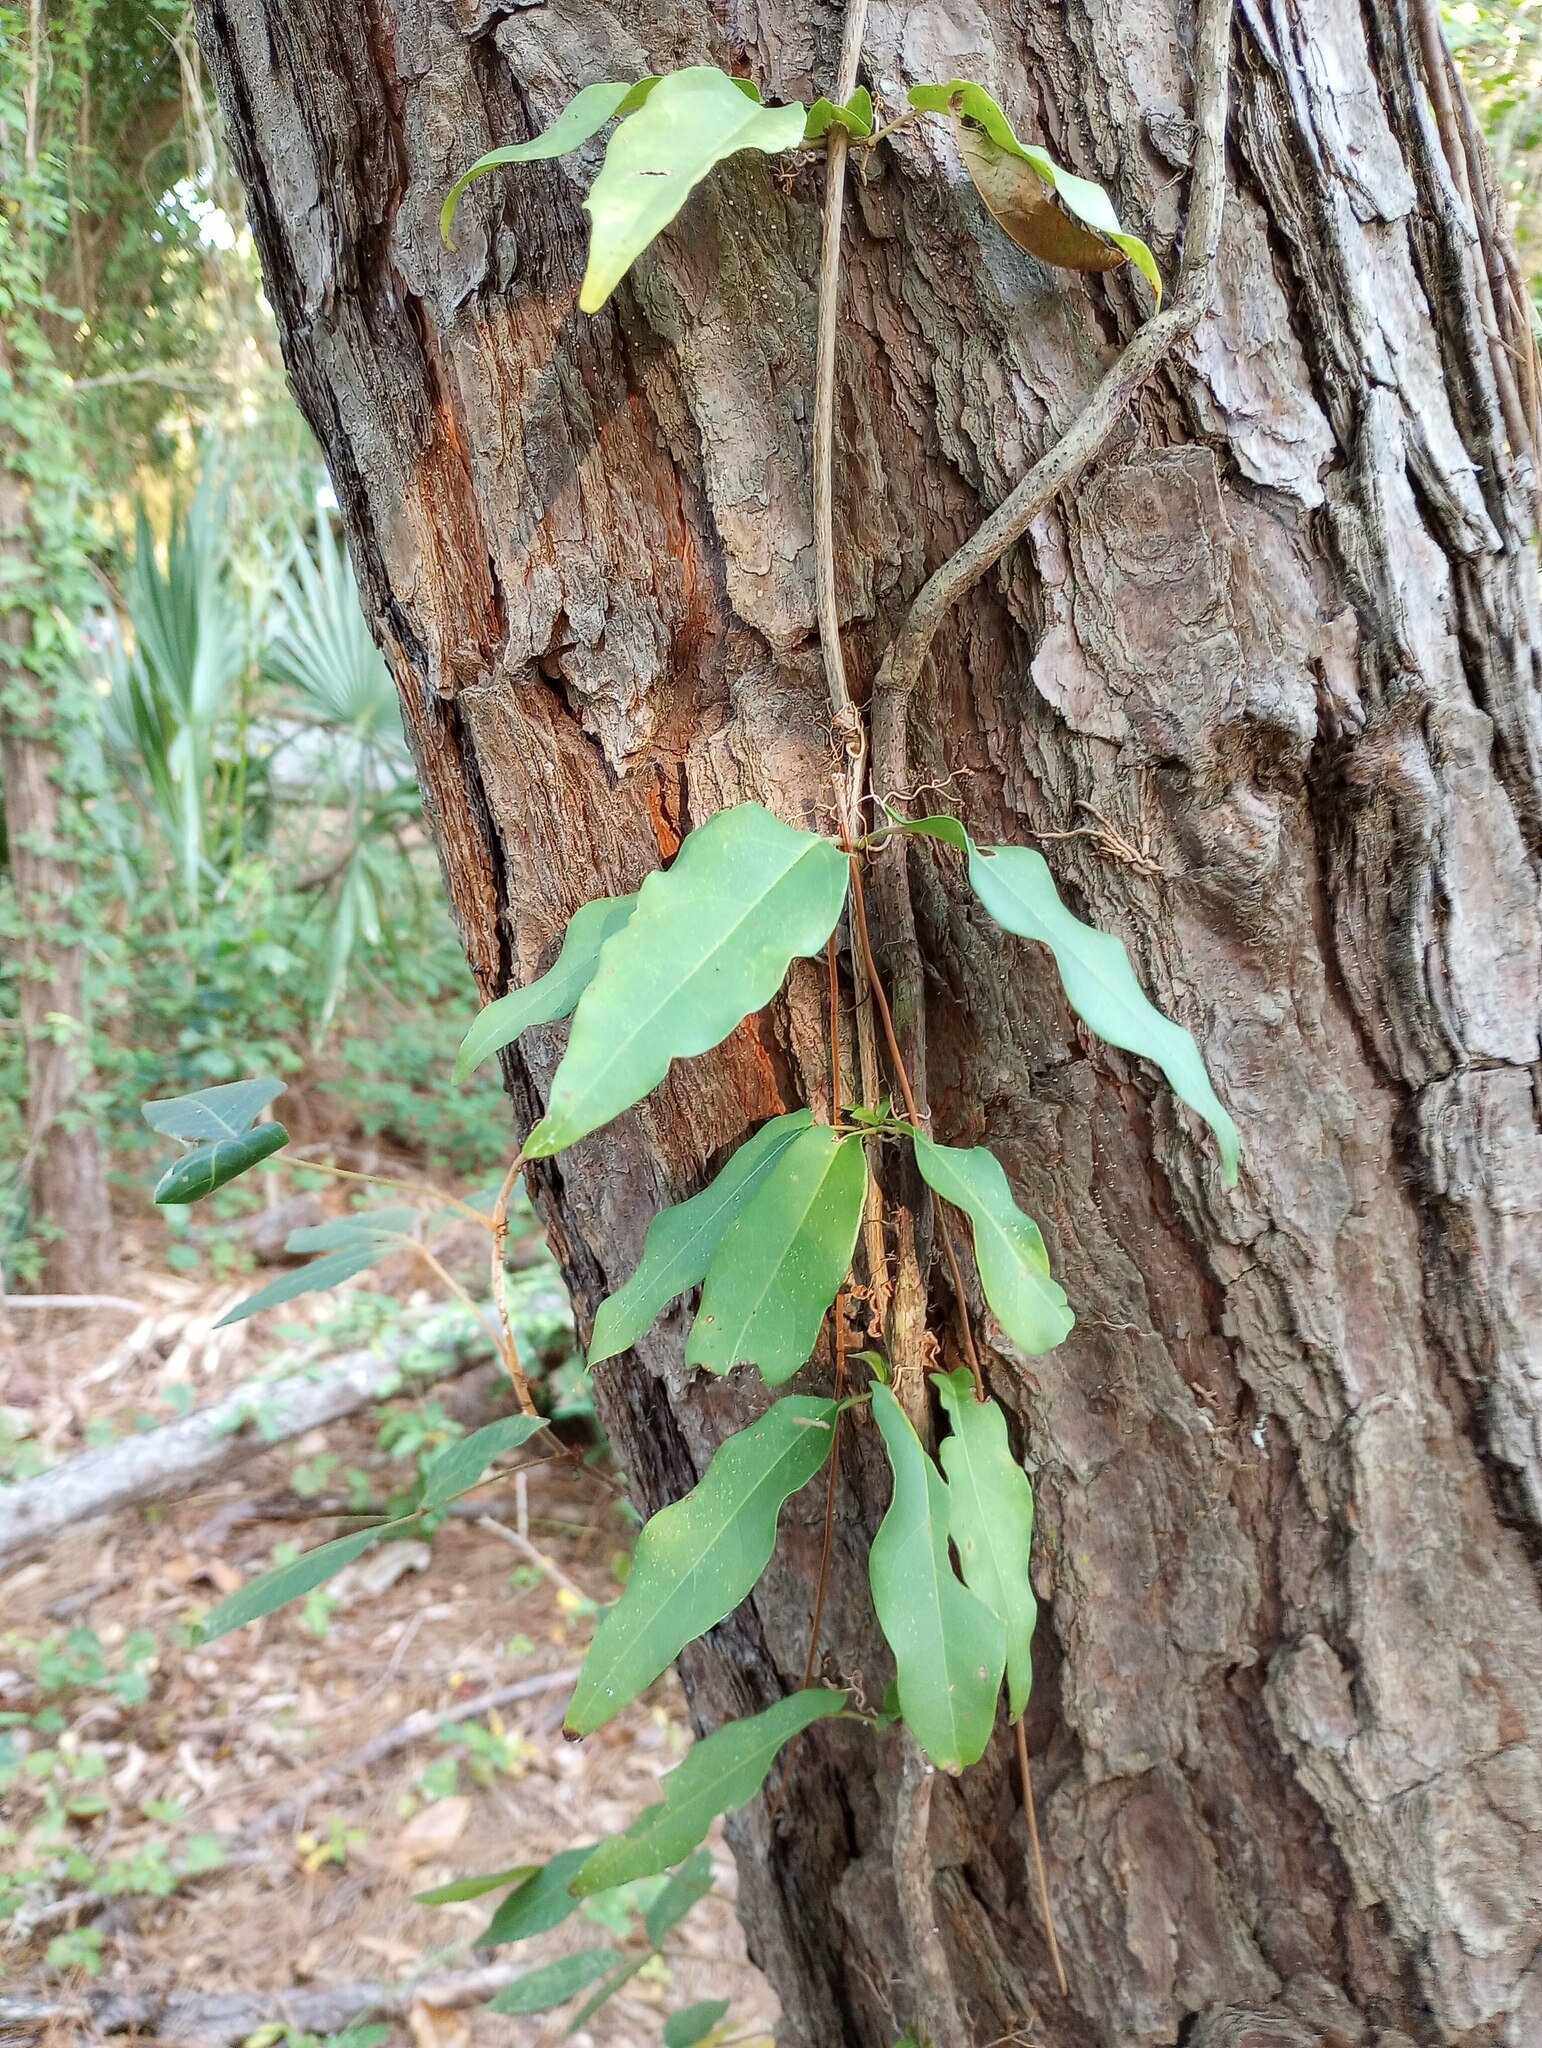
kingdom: Plantae
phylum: Tracheophyta
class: Magnoliopsida
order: Lamiales
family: Bignoniaceae
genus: Bignonia
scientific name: Bignonia capreolata
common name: Crossvine
